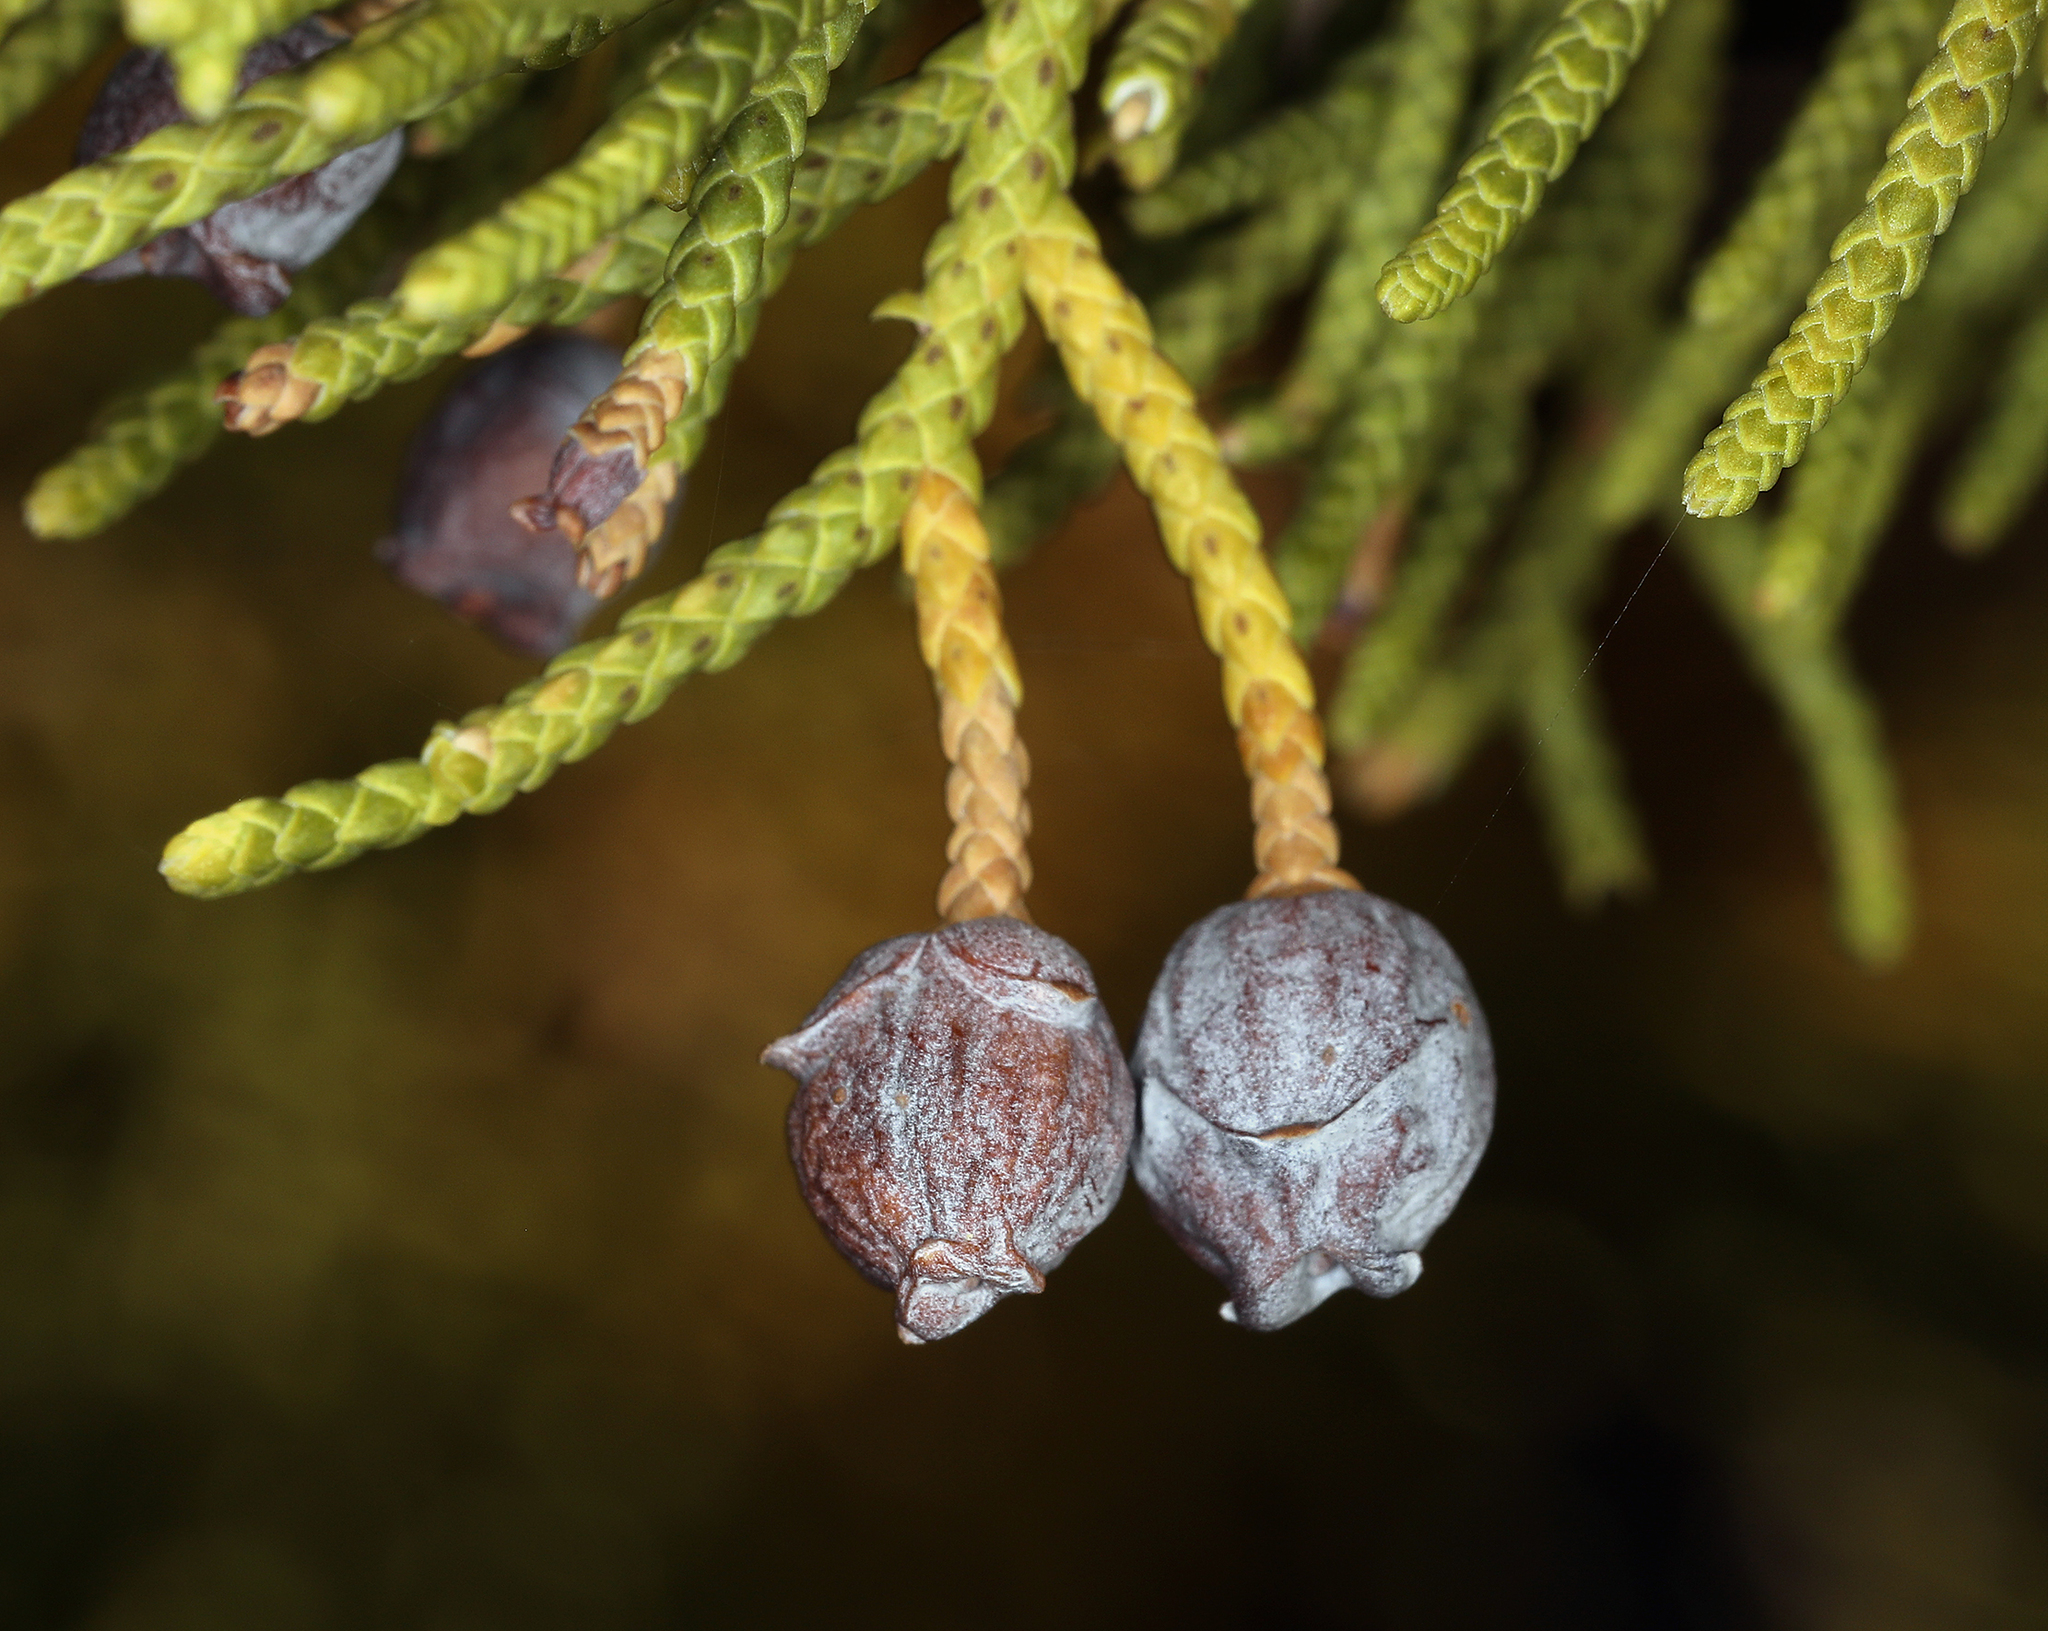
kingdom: Plantae
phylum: Tracheophyta
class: Pinopsida
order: Pinales
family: Cupressaceae
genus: Juniperus
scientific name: Juniperus osteosperma
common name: Utah juniper
